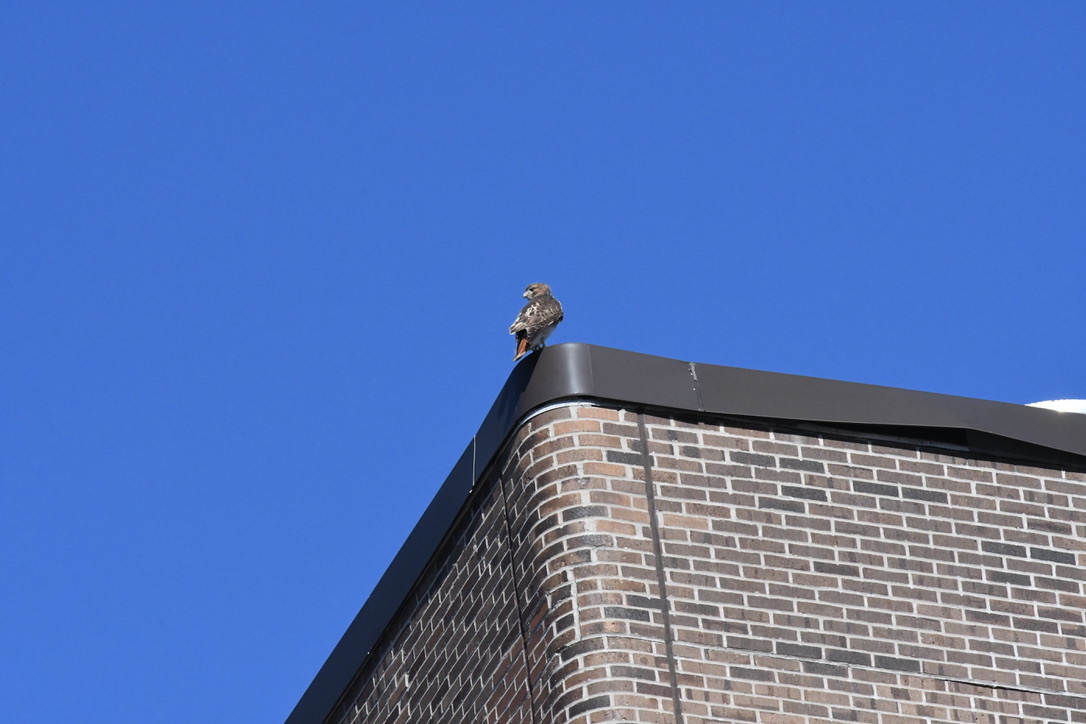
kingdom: Animalia
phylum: Chordata
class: Aves
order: Accipitriformes
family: Accipitridae
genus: Buteo
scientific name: Buteo jamaicensis
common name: Red-tailed hawk
